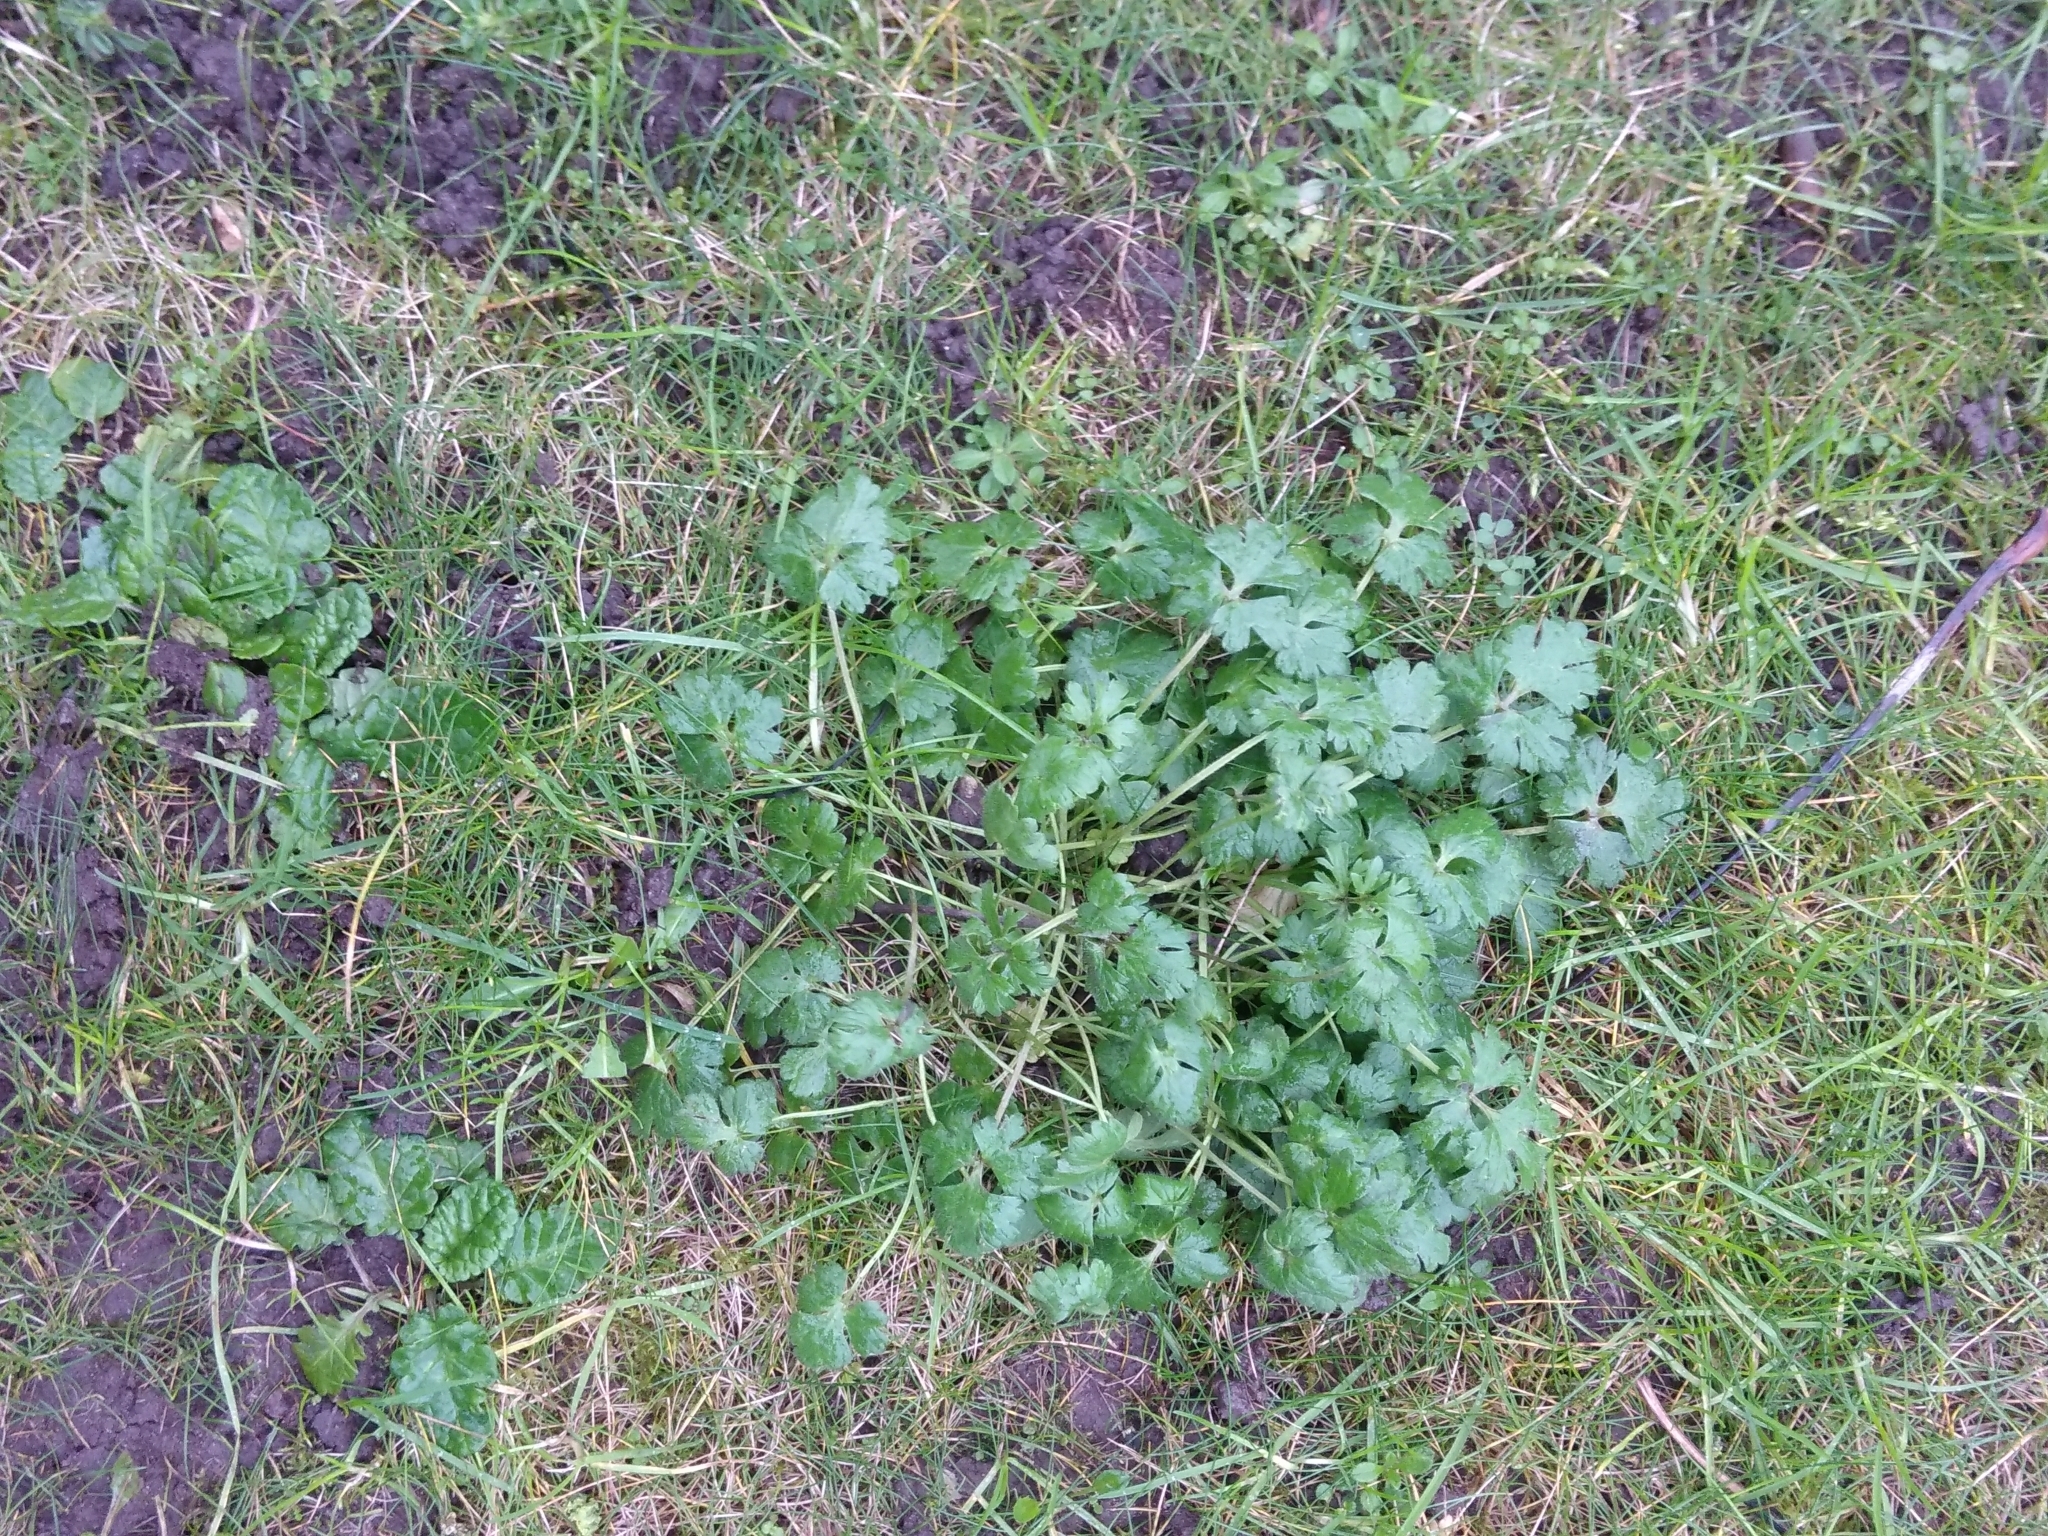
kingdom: Plantae
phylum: Tracheophyta
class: Magnoliopsida
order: Ranunculales
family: Ranunculaceae
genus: Ranunculus
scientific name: Ranunculus bulbosus
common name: Bulbous buttercup
